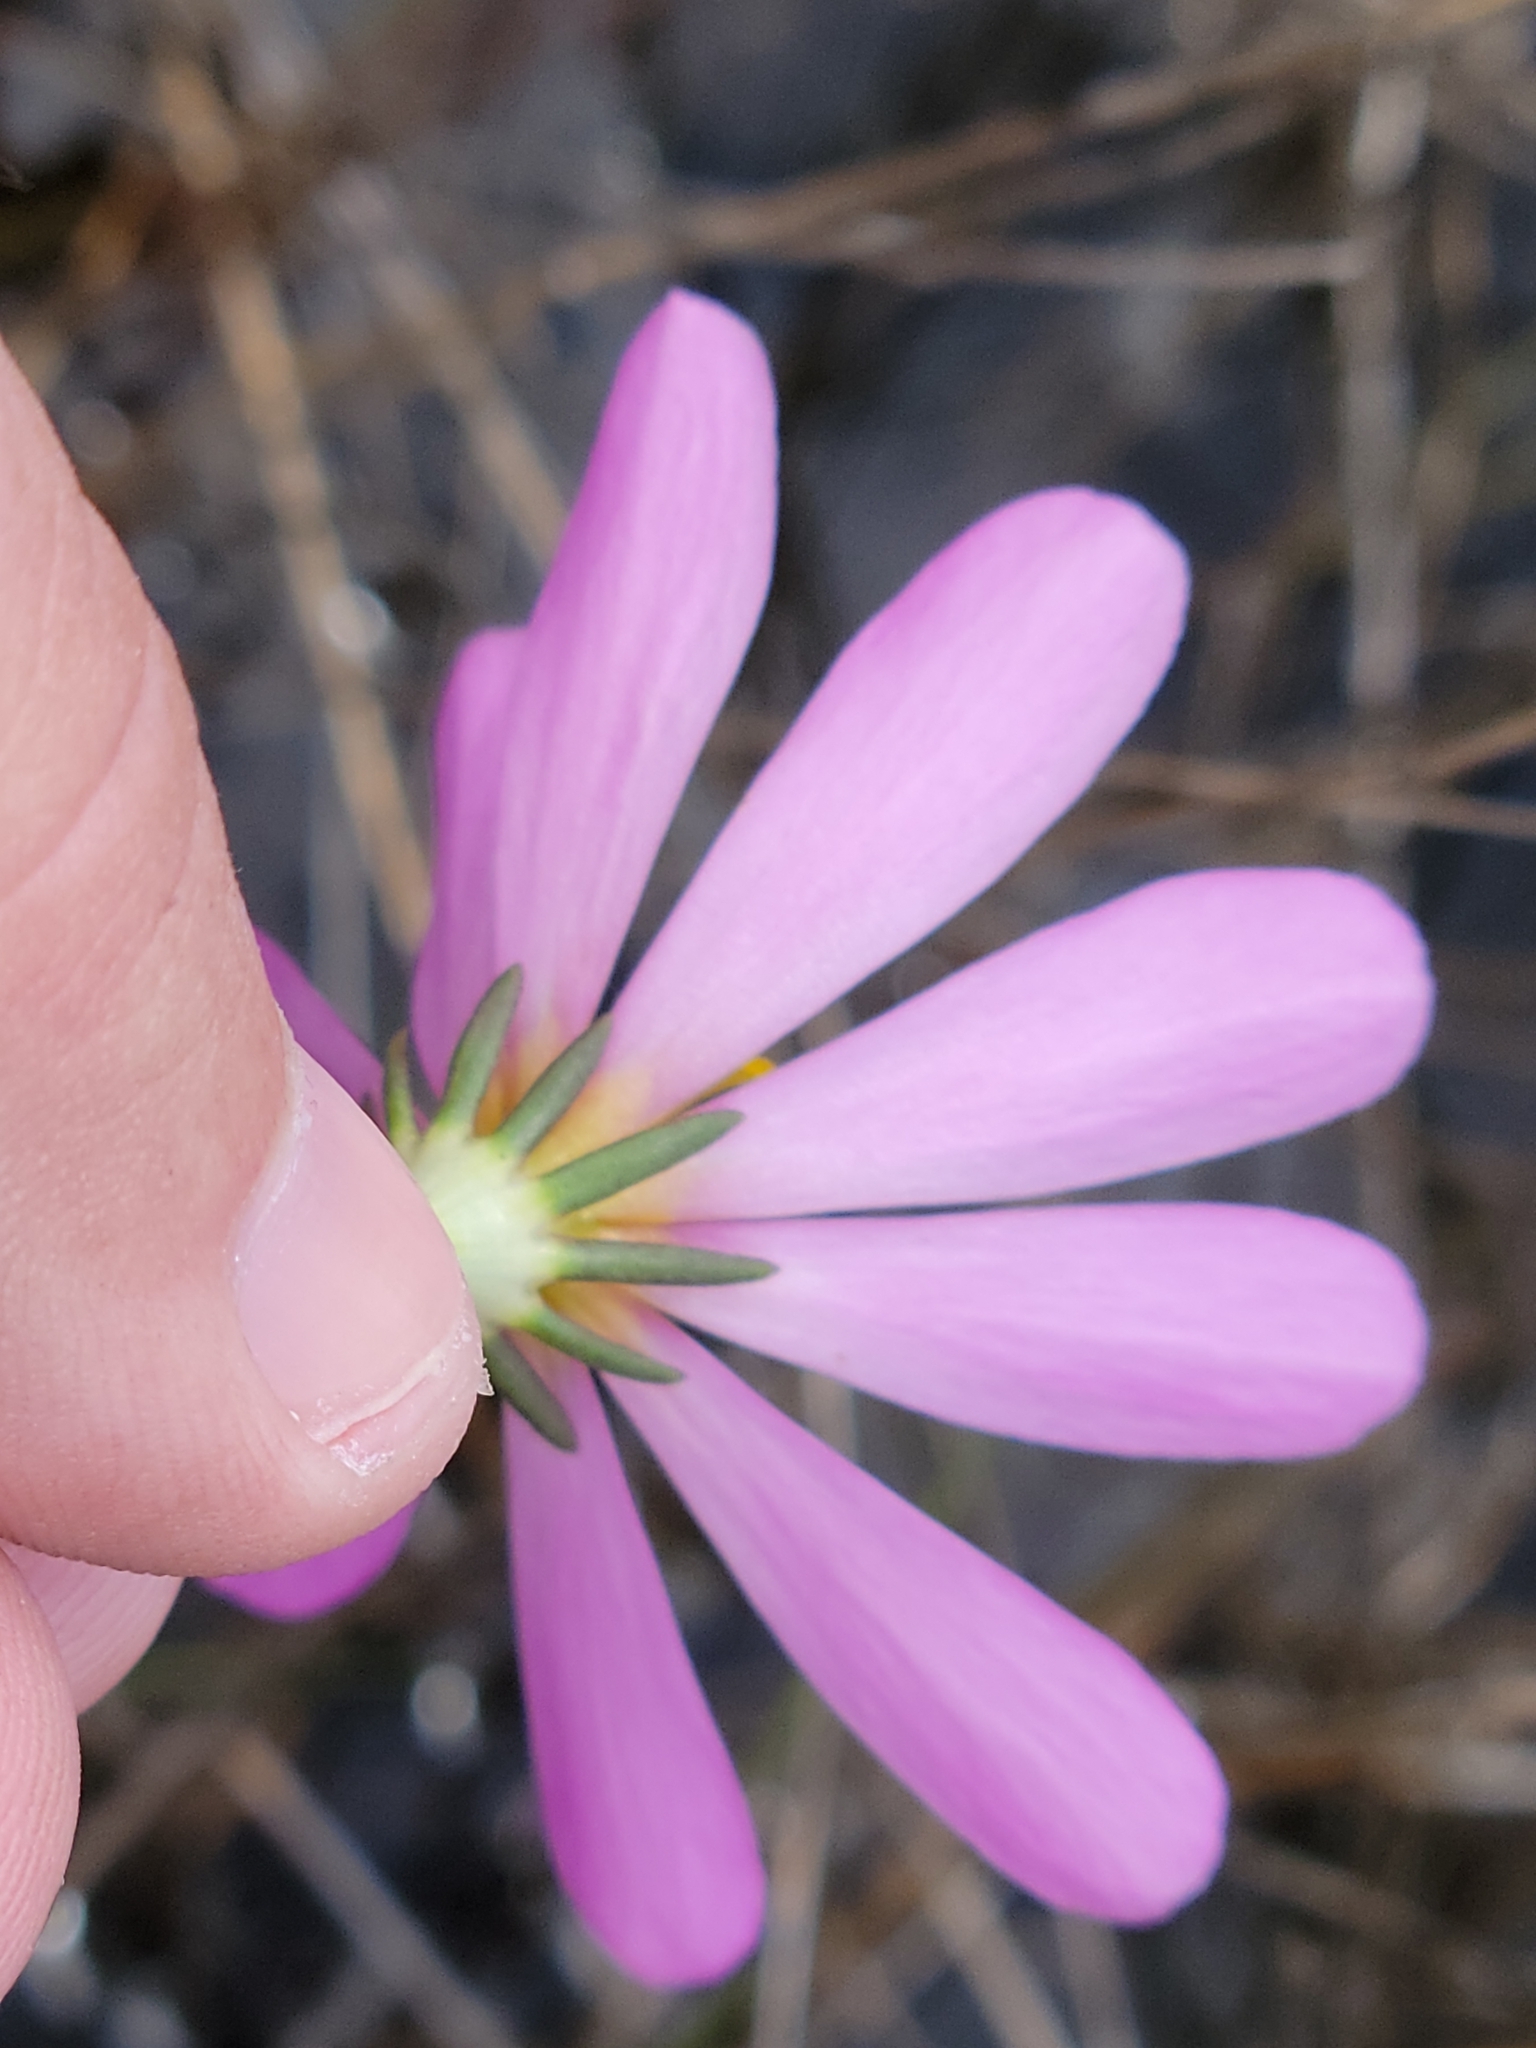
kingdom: Plantae
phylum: Tracheophyta
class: Magnoliopsida
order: Gentianales
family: Gentianaceae
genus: Sabatia
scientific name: Sabatia decandra
